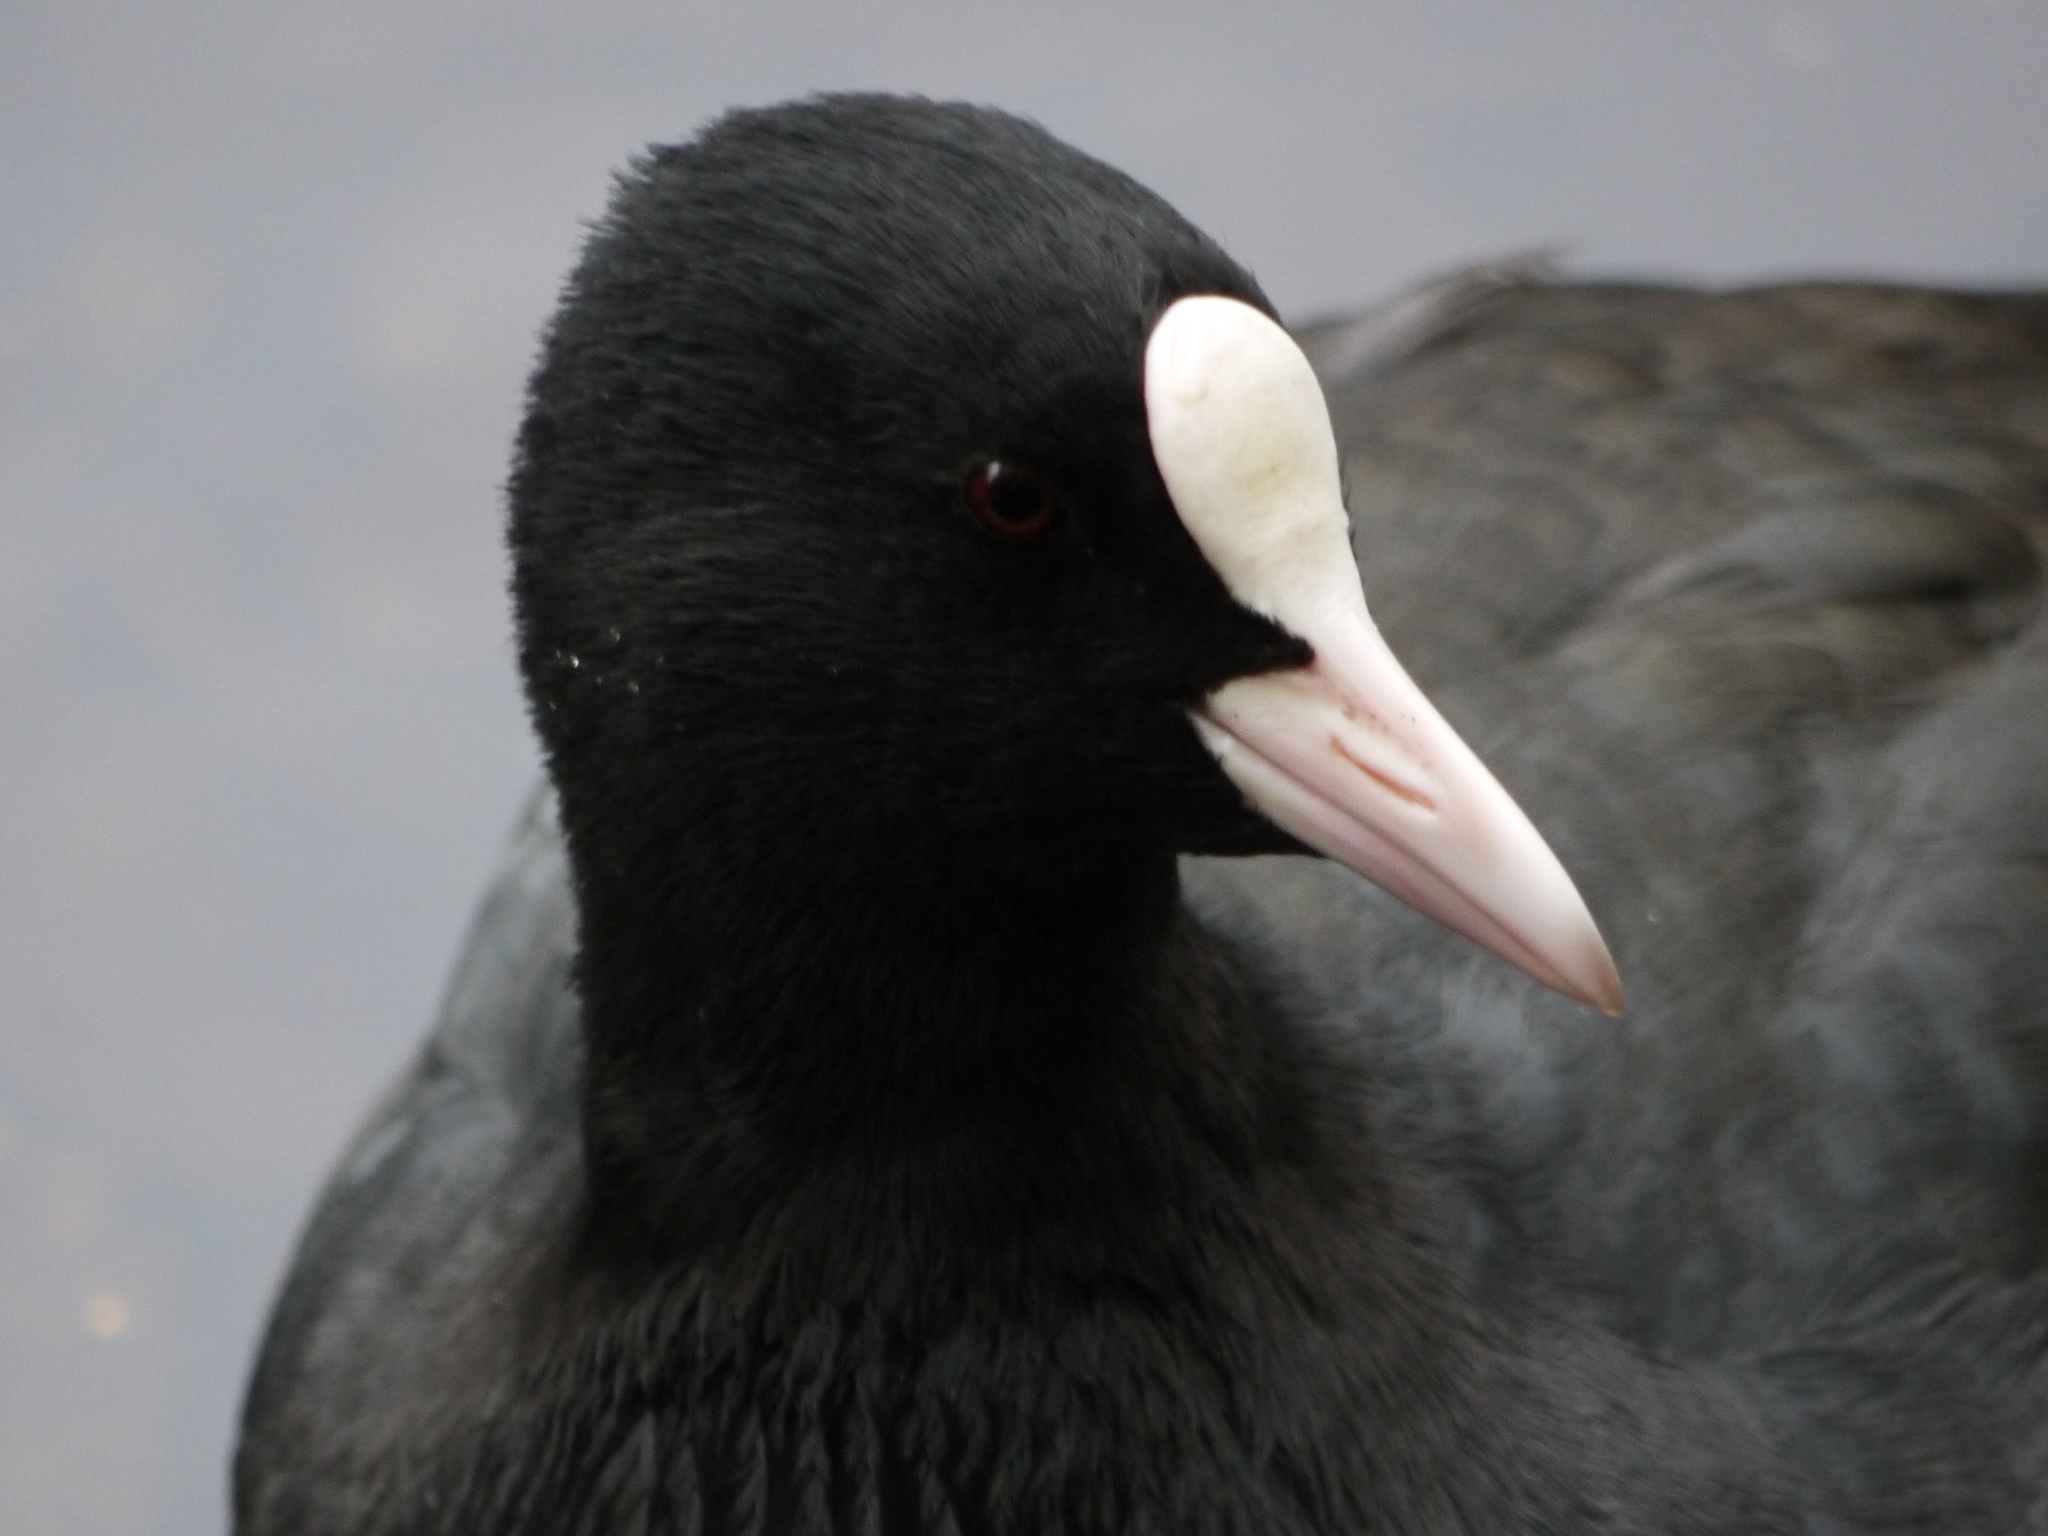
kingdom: Animalia
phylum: Chordata
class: Aves
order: Gruiformes
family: Rallidae
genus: Fulica
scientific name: Fulica atra
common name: Eurasian coot
